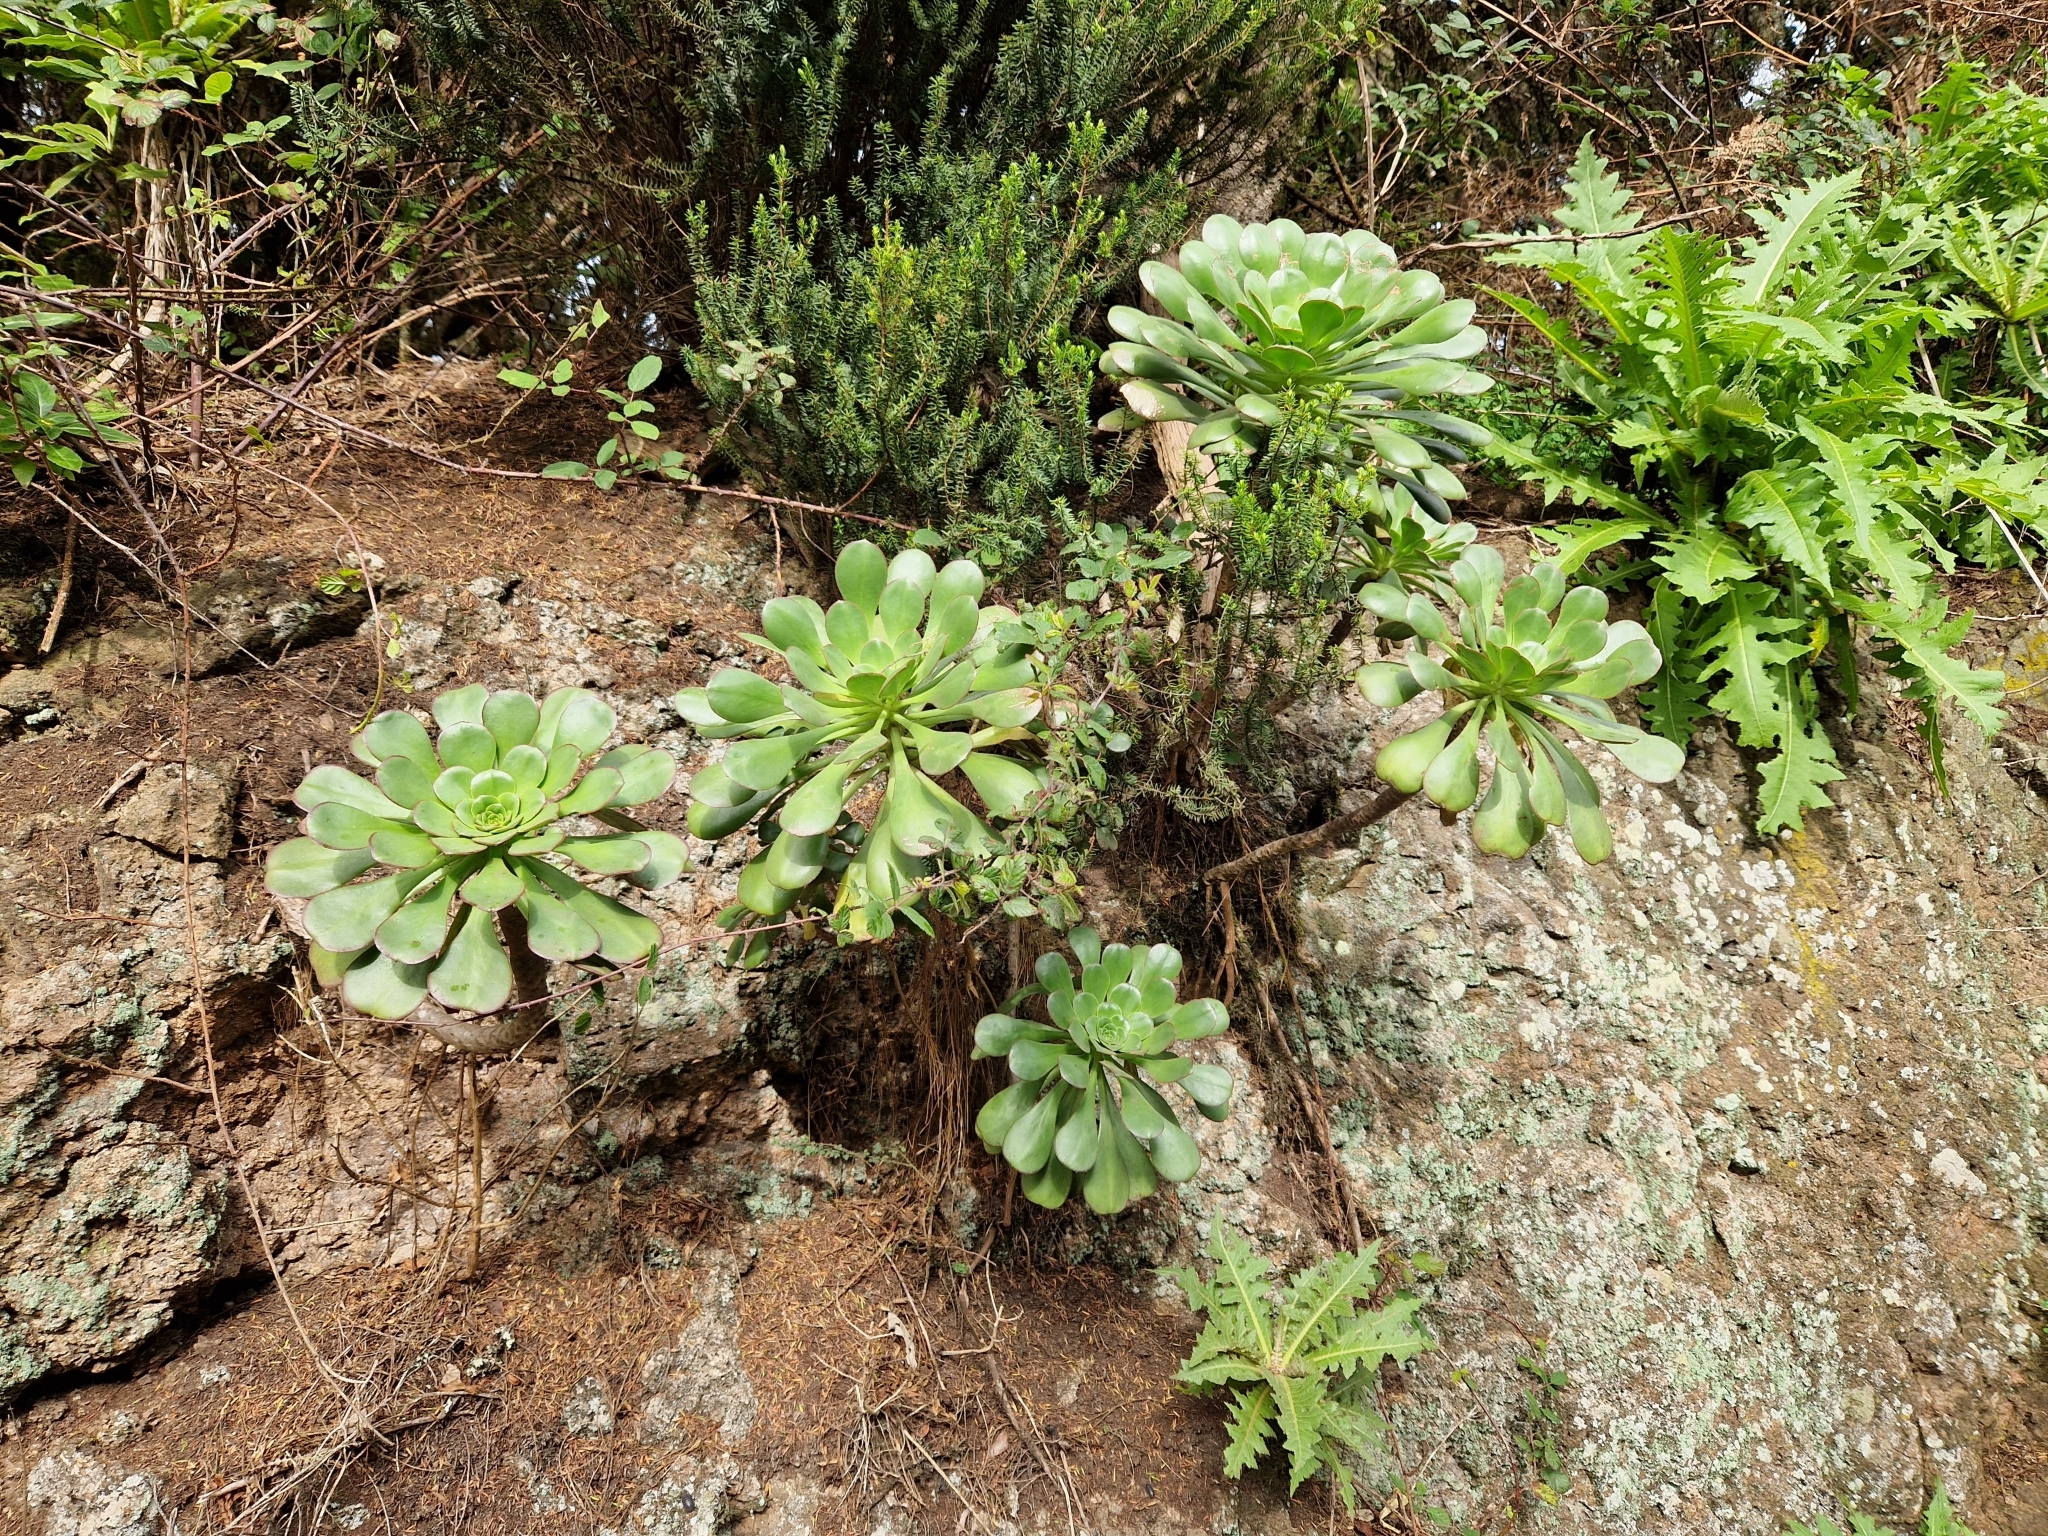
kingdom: Plantae
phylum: Tracheophyta
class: Magnoliopsida
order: Saxifragales
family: Crassulaceae
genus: Aeonium
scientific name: Aeonium ciliatum
